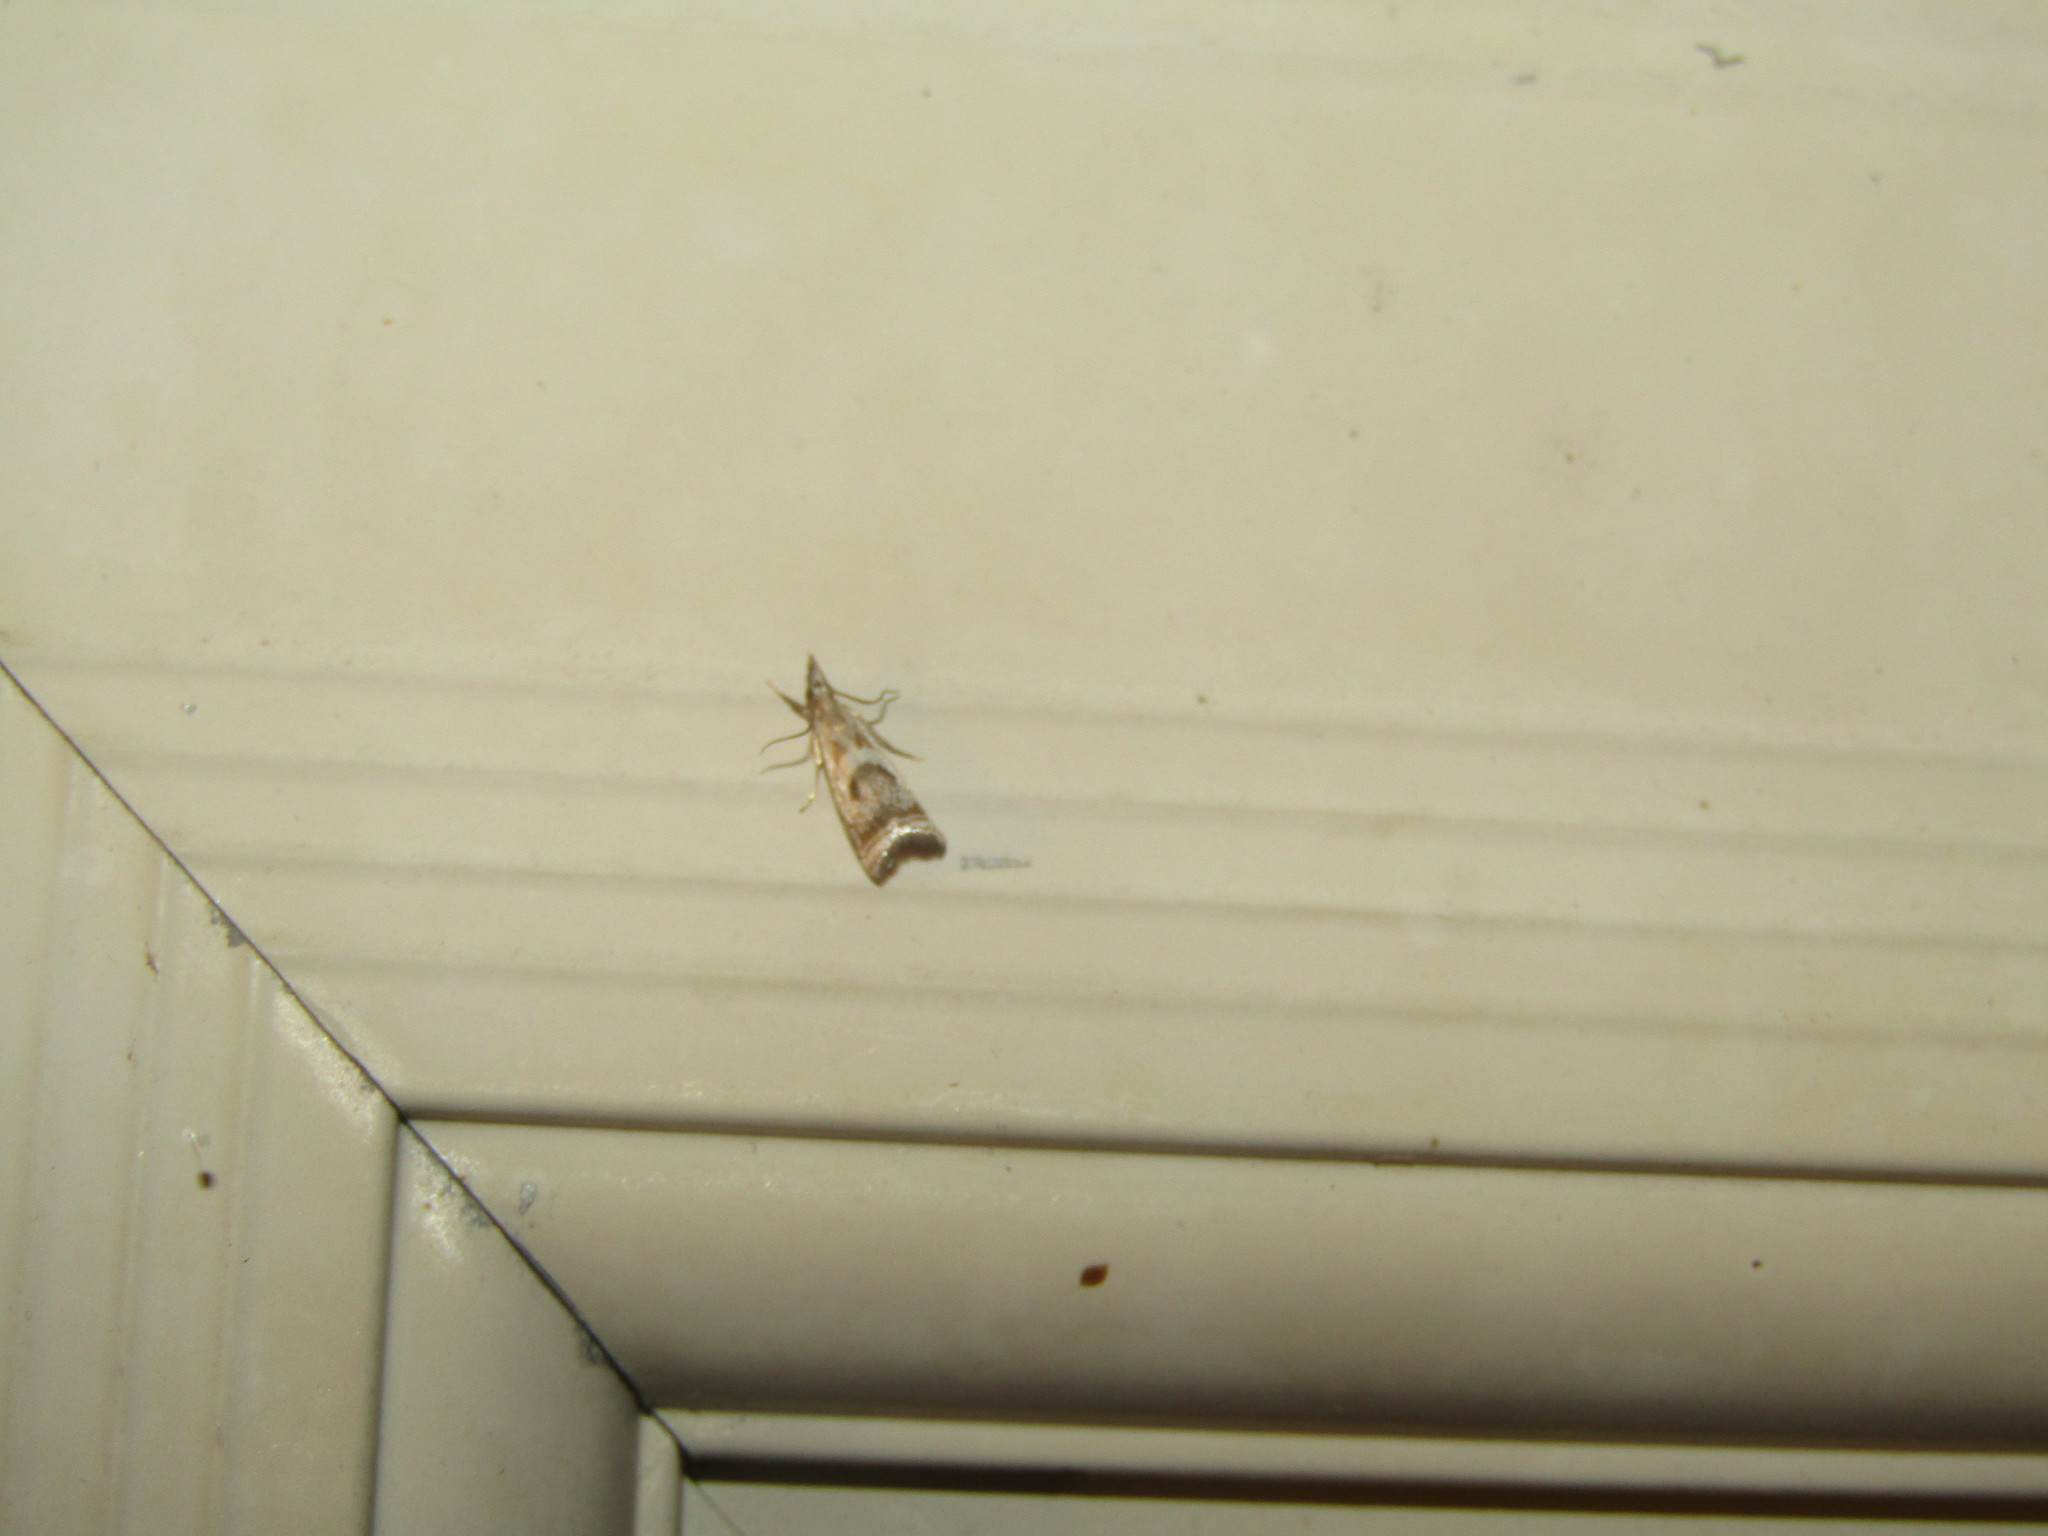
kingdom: Animalia
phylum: Arthropoda
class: Insecta
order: Lepidoptera
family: Crambidae
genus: Microcrambus
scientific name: Microcrambus elegans
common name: Elegant grass-veneer
